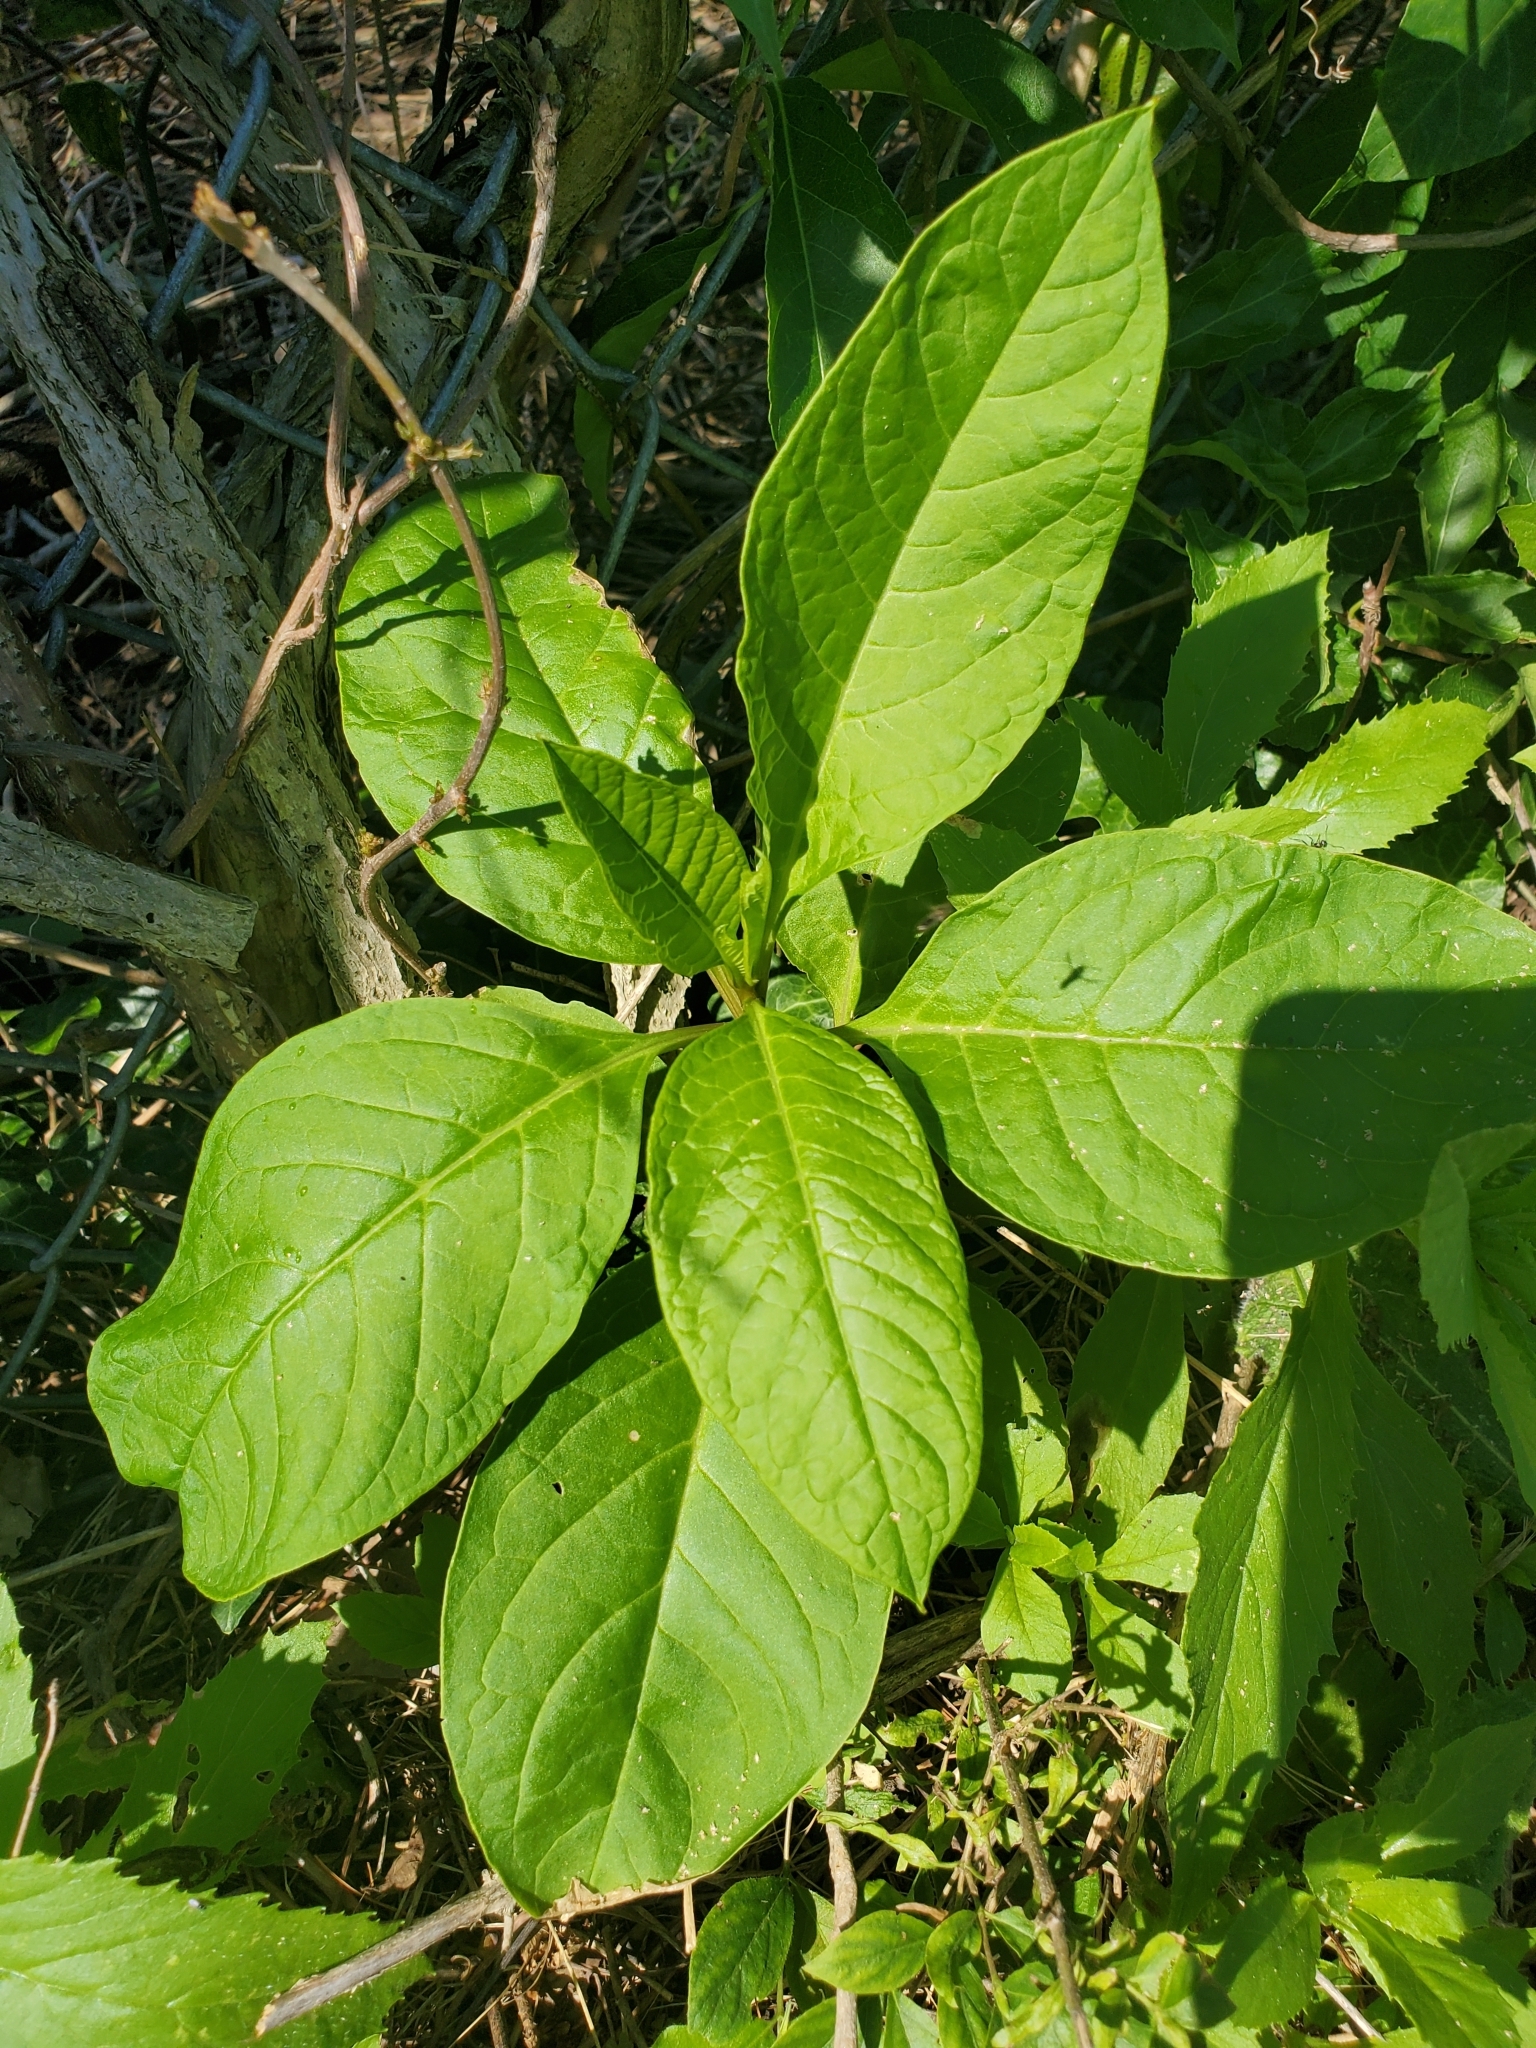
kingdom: Plantae
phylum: Tracheophyta
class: Magnoliopsida
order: Caryophyllales
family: Phytolaccaceae
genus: Phytolacca
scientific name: Phytolacca americana
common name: American pokeweed
